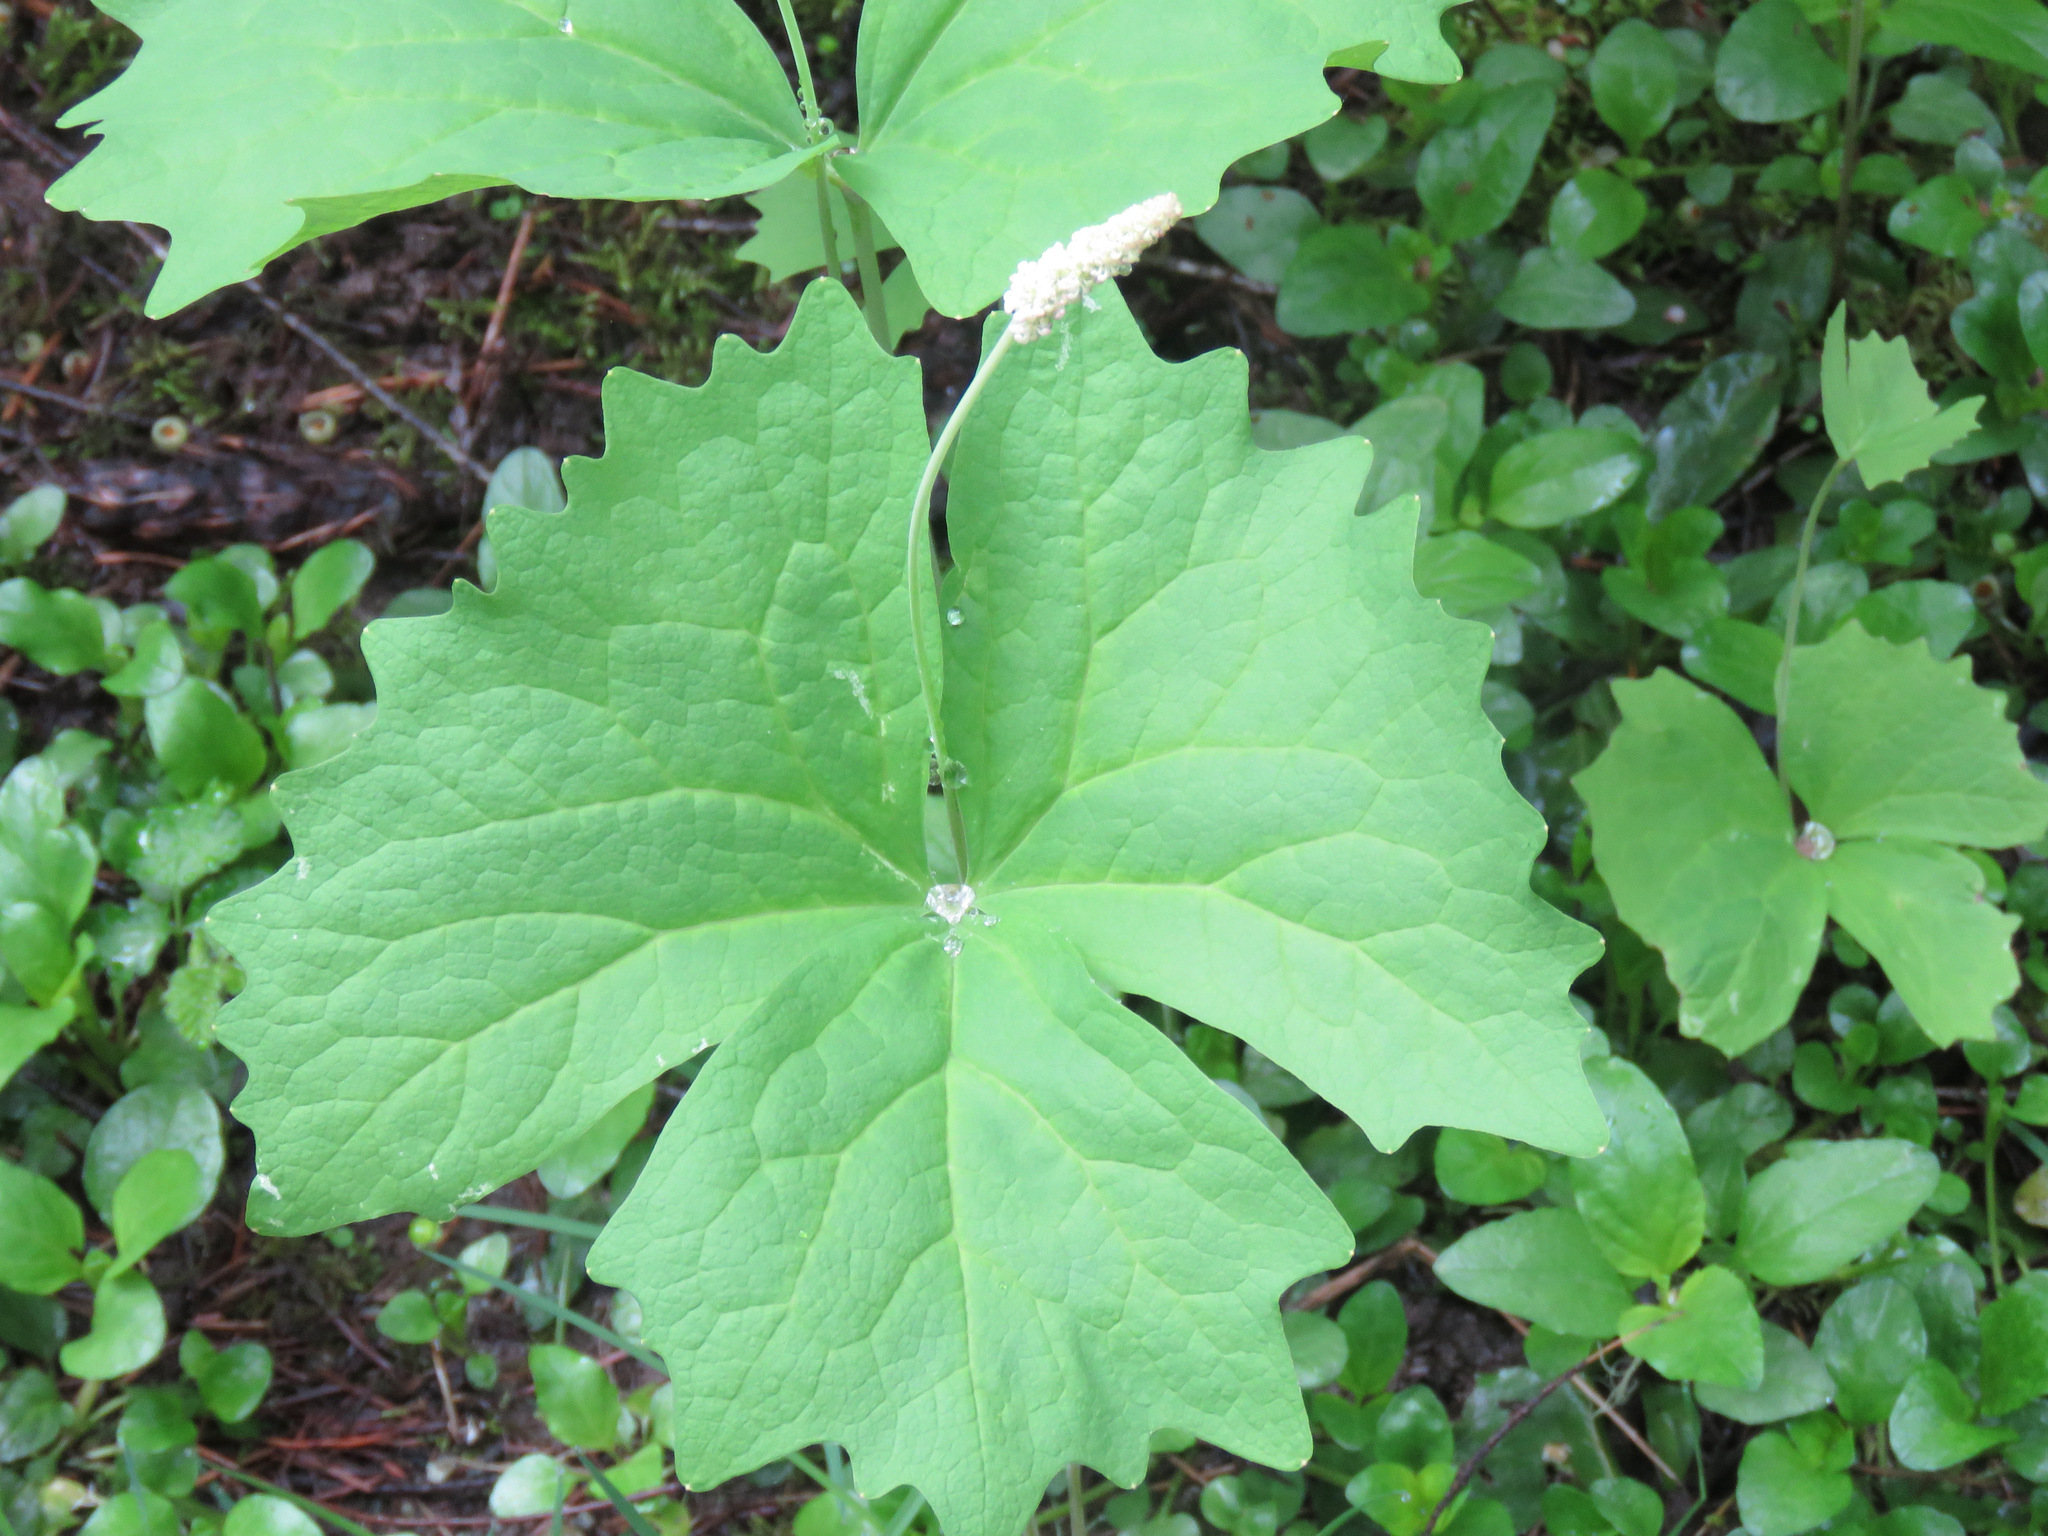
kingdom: Plantae
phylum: Tracheophyta
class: Magnoliopsida
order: Ranunculales
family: Berberidaceae
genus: Achlys
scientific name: Achlys triphylla
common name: Vanilla-leaf
